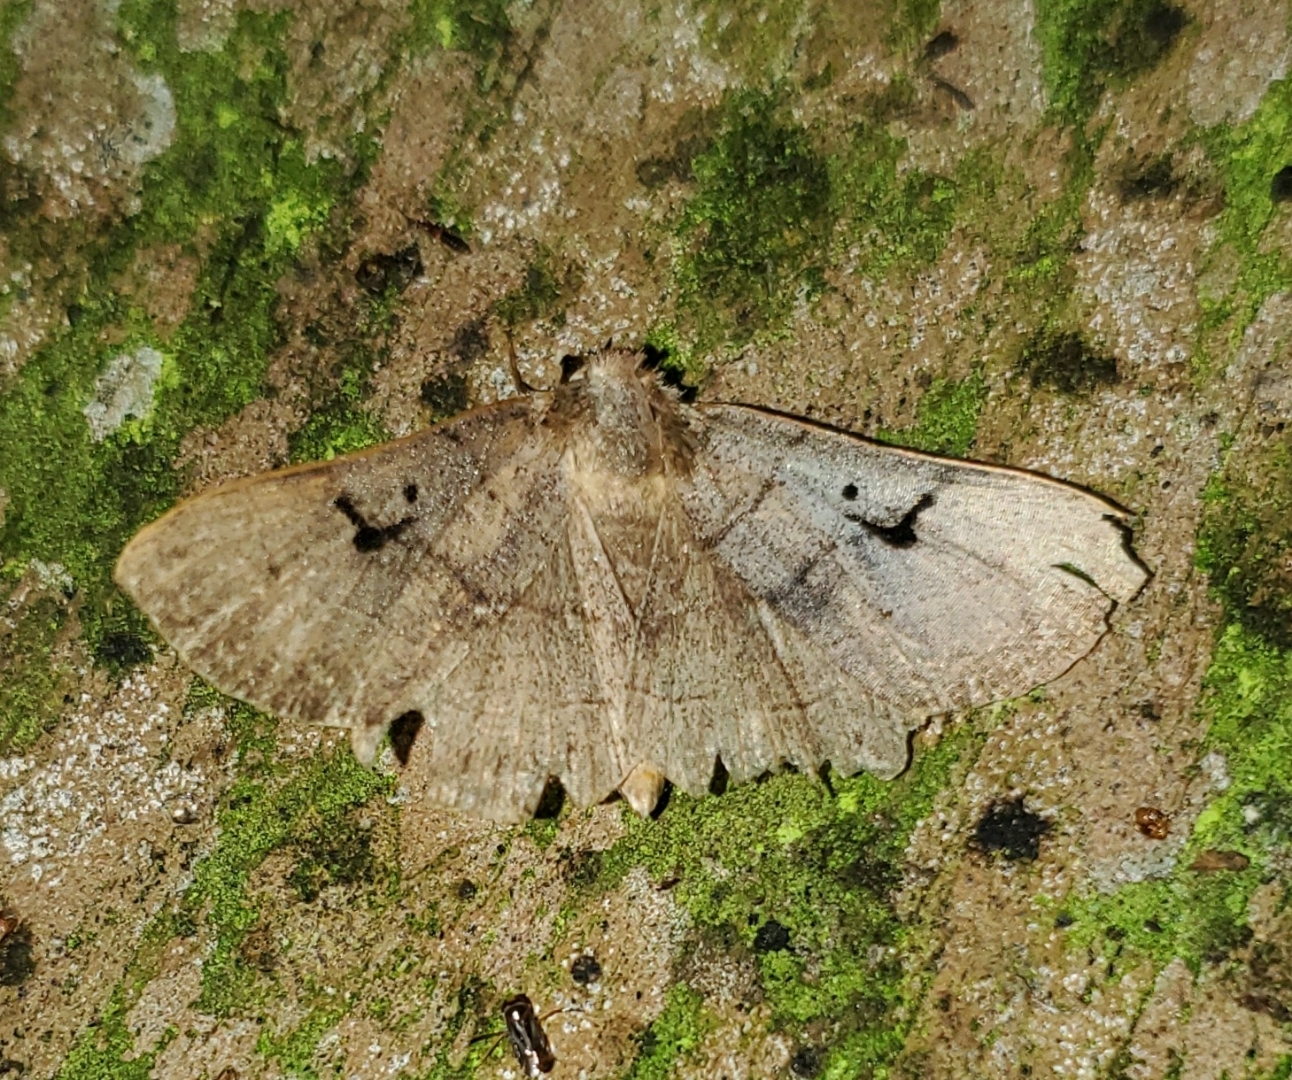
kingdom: Animalia
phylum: Arthropoda
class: Insecta
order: Lepidoptera
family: Erebidae
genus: Panopoda
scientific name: Panopoda carneicosta
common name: Brown panopoda moth
